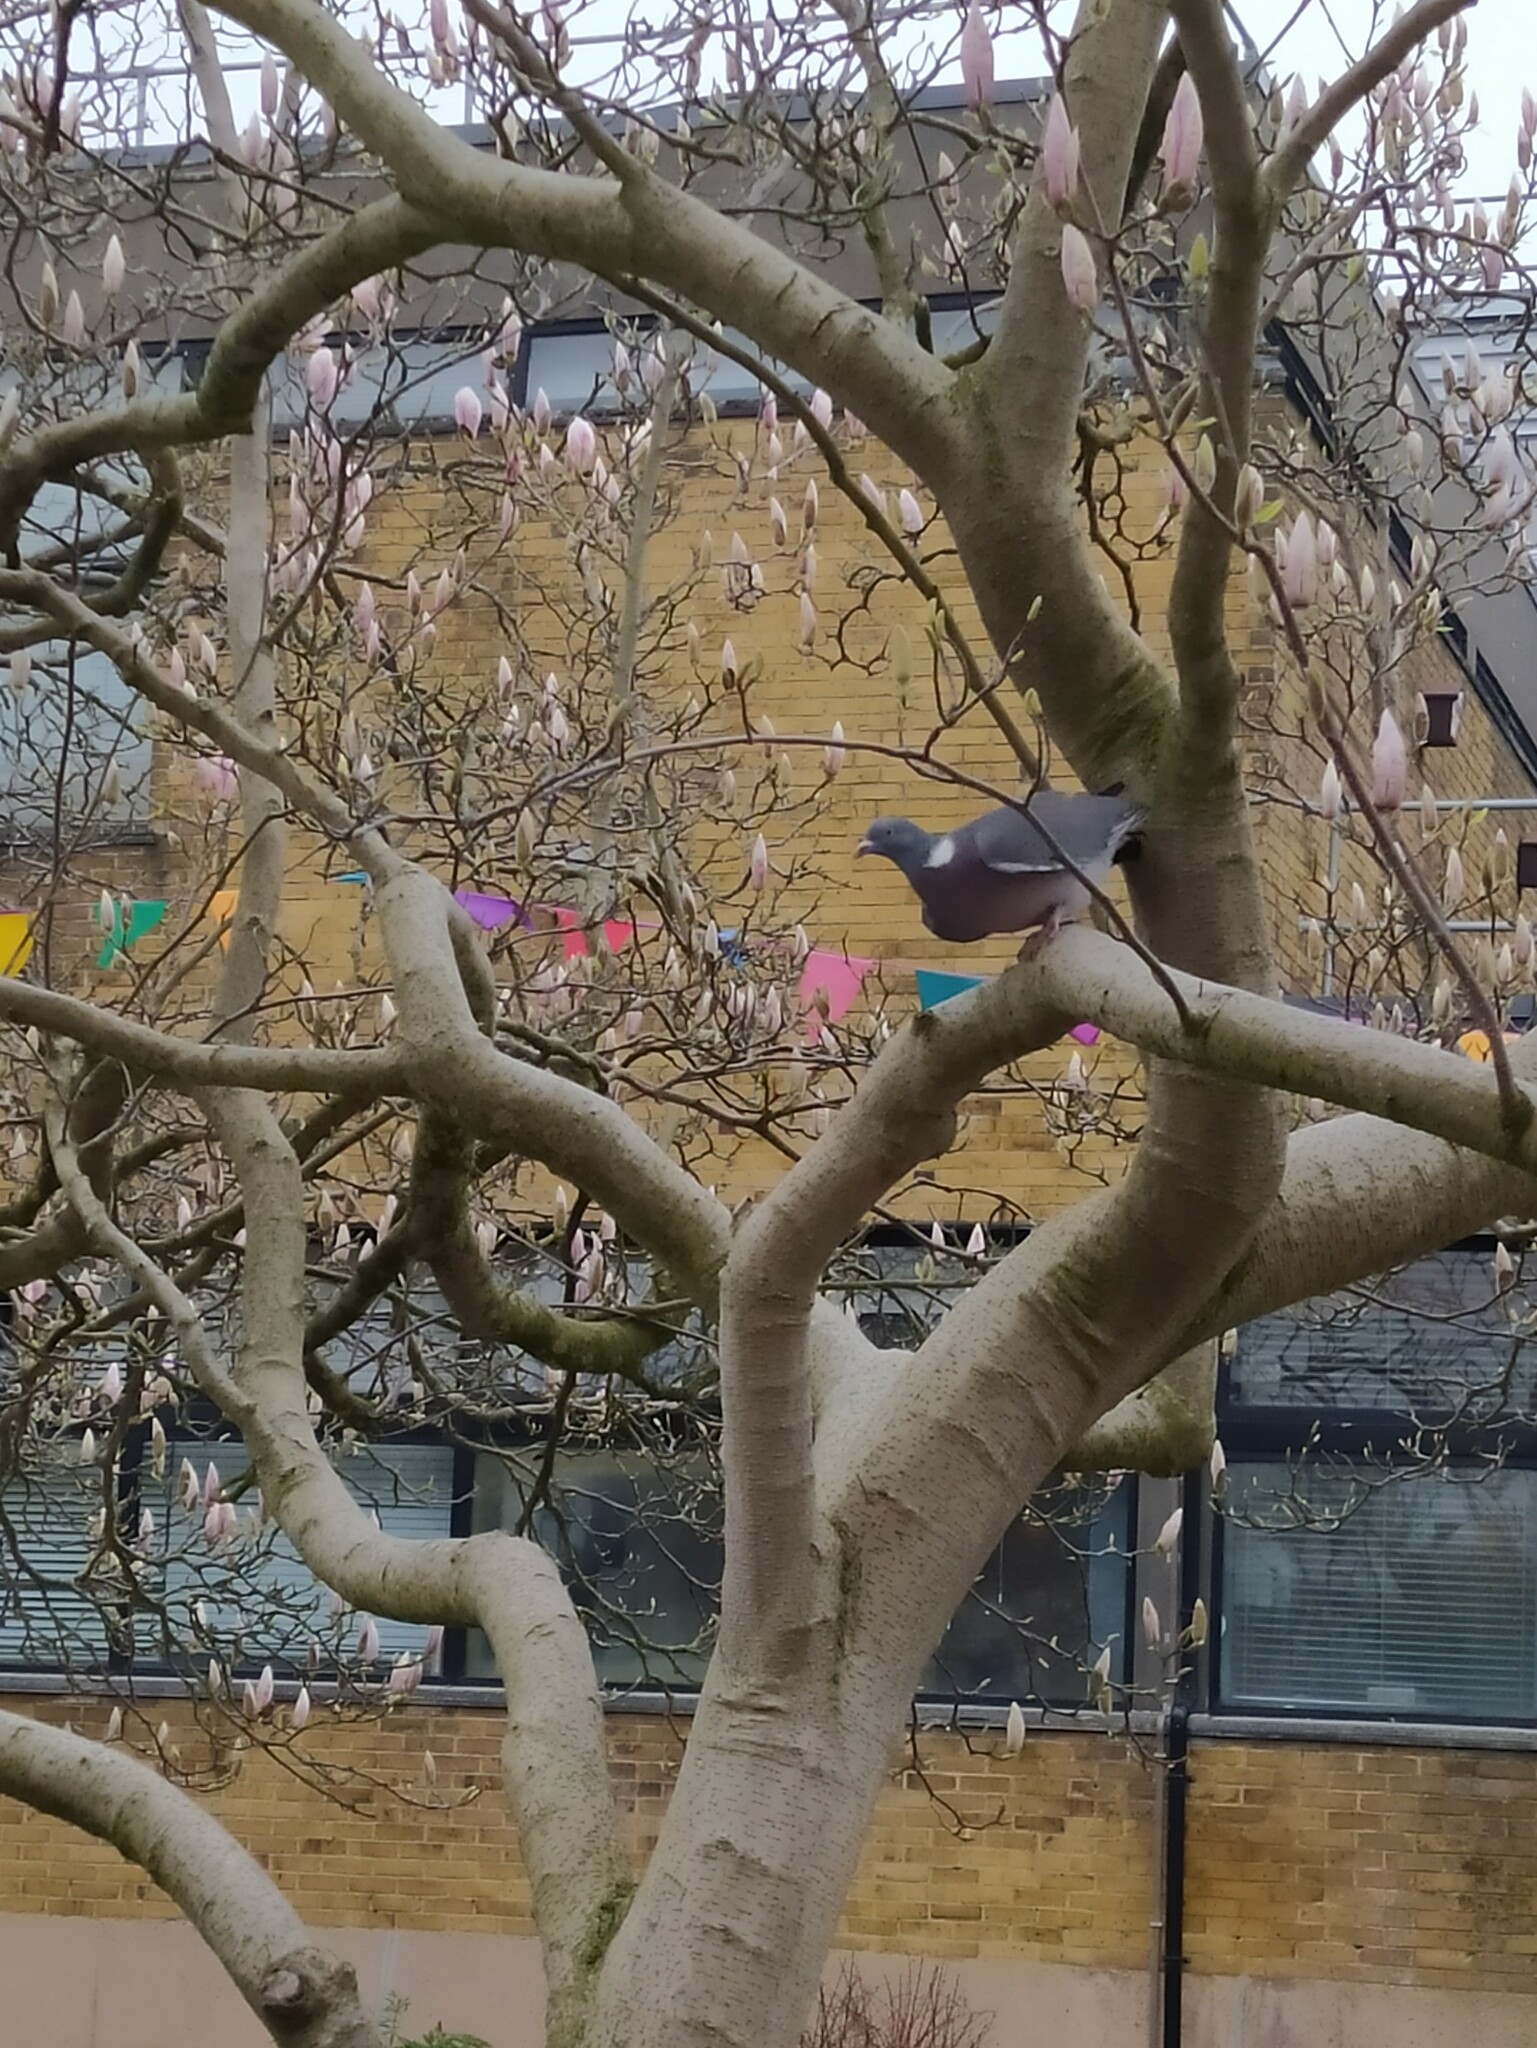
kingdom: Animalia
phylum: Chordata
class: Aves
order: Columbiformes
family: Columbidae
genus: Columba
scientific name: Columba palumbus
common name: Common wood pigeon
